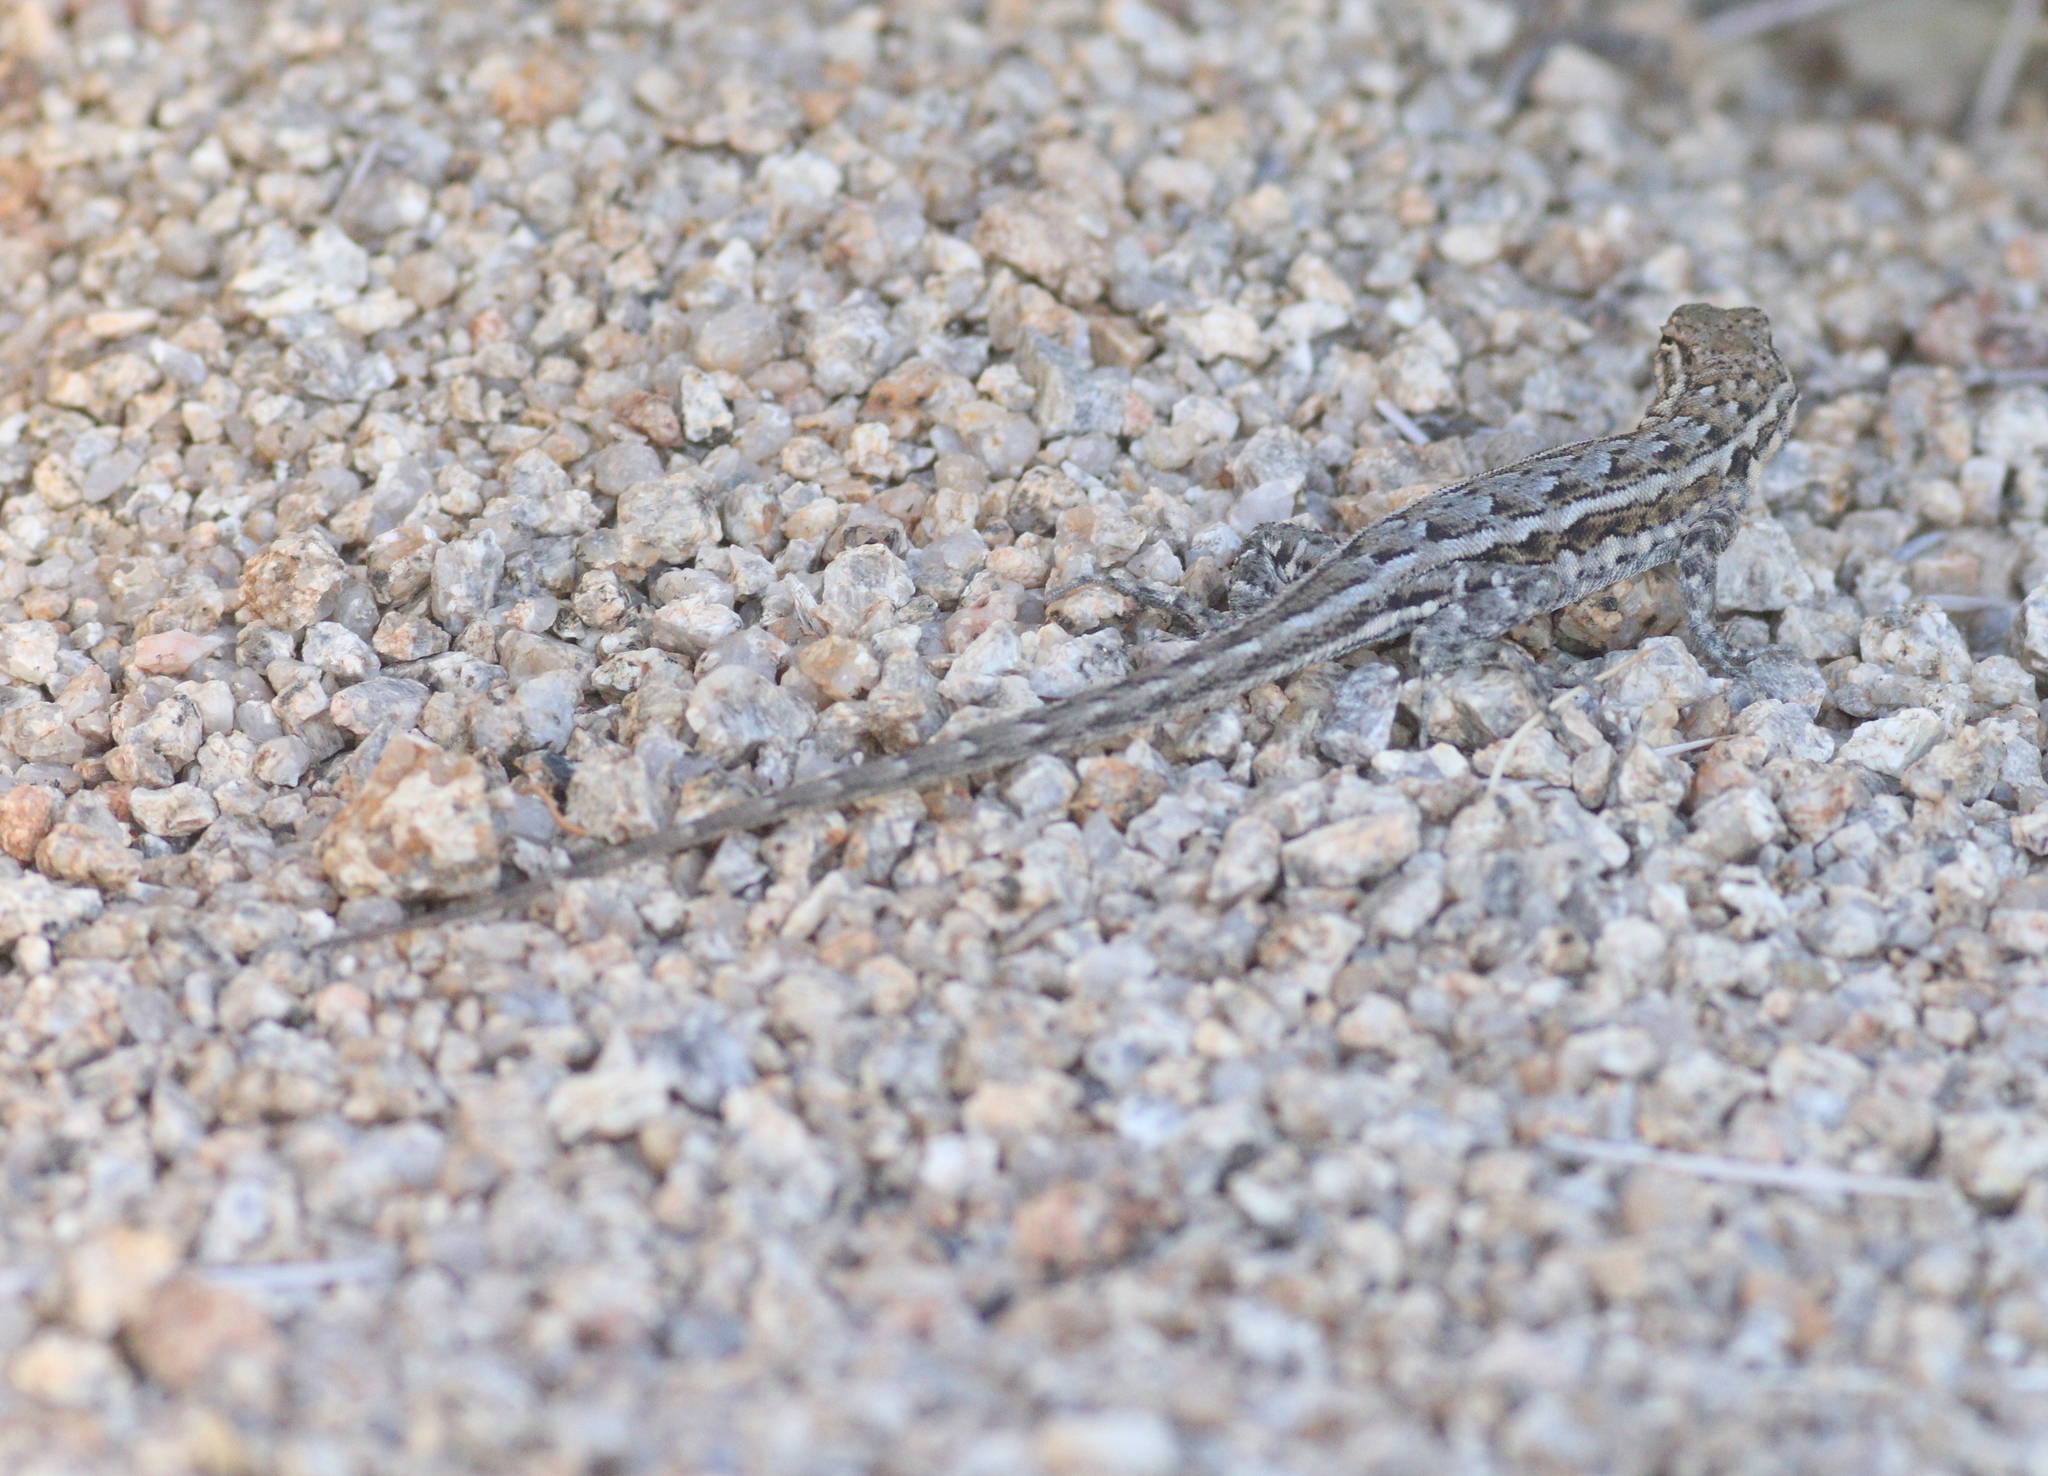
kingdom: Animalia
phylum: Chordata
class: Squamata
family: Phrynosomatidae
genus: Uta
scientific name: Uta stansburiana
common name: Side-blotched lizard
